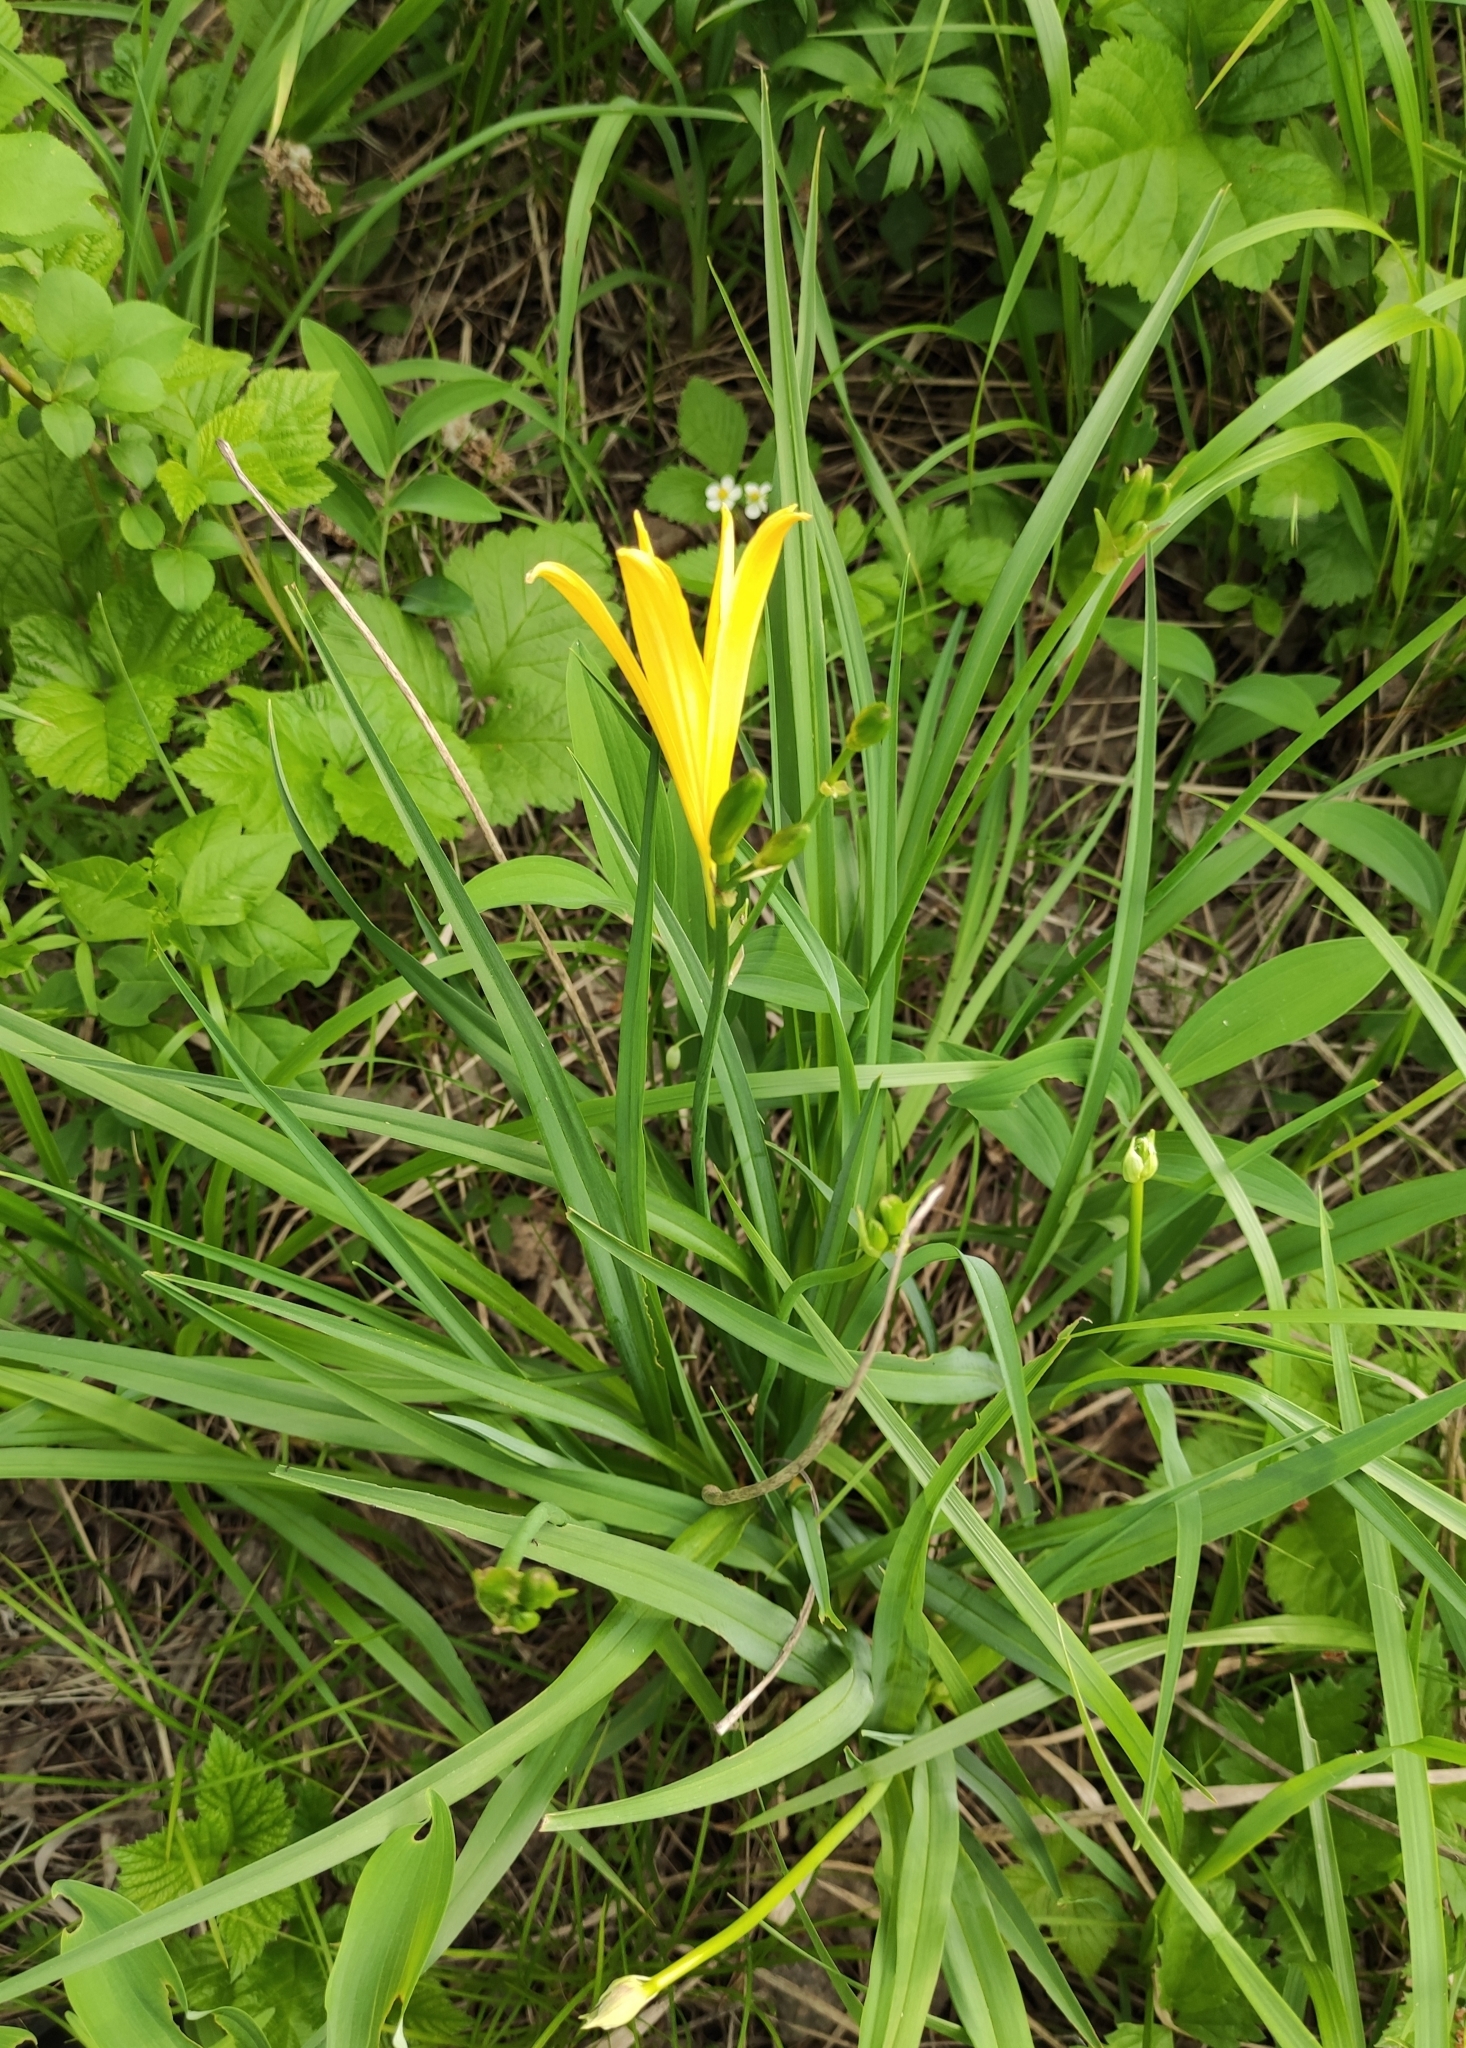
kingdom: Plantae
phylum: Tracheophyta
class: Liliopsida
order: Asparagales
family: Asphodelaceae
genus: Hemerocallis
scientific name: Hemerocallis minor
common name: Small daylily
